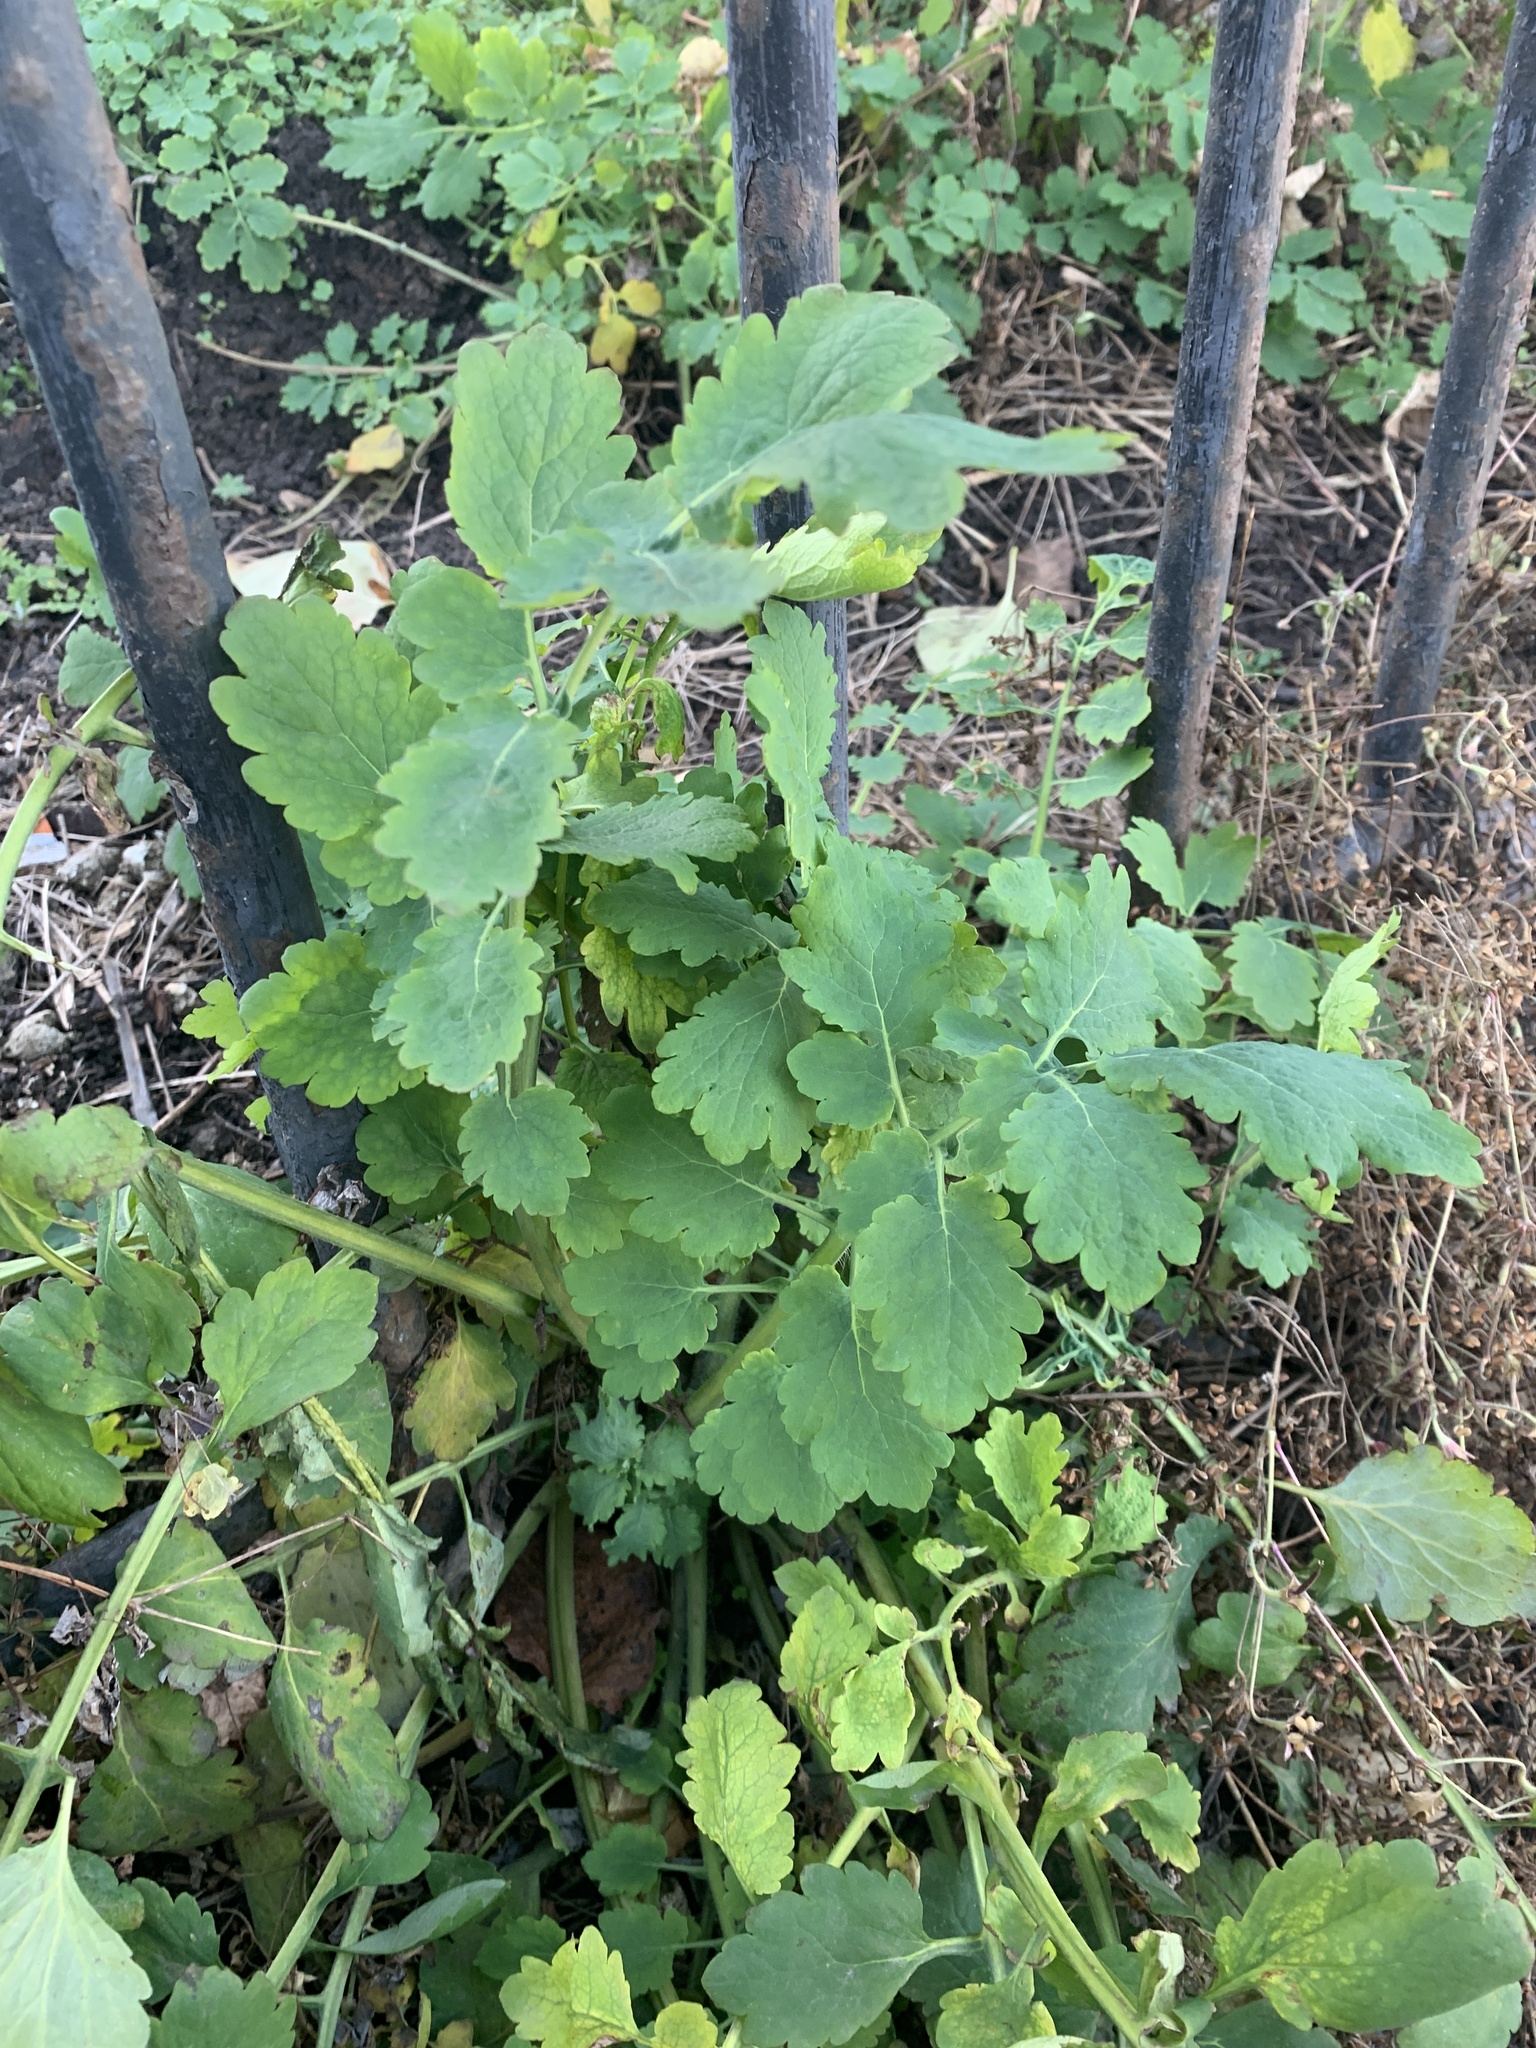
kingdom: Plantae
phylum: Tracheophyta
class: Magnoliopsida
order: Ranunculales
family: Papaveraceae
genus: Chelidonium
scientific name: Chelidonium majus
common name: Greater celandine
